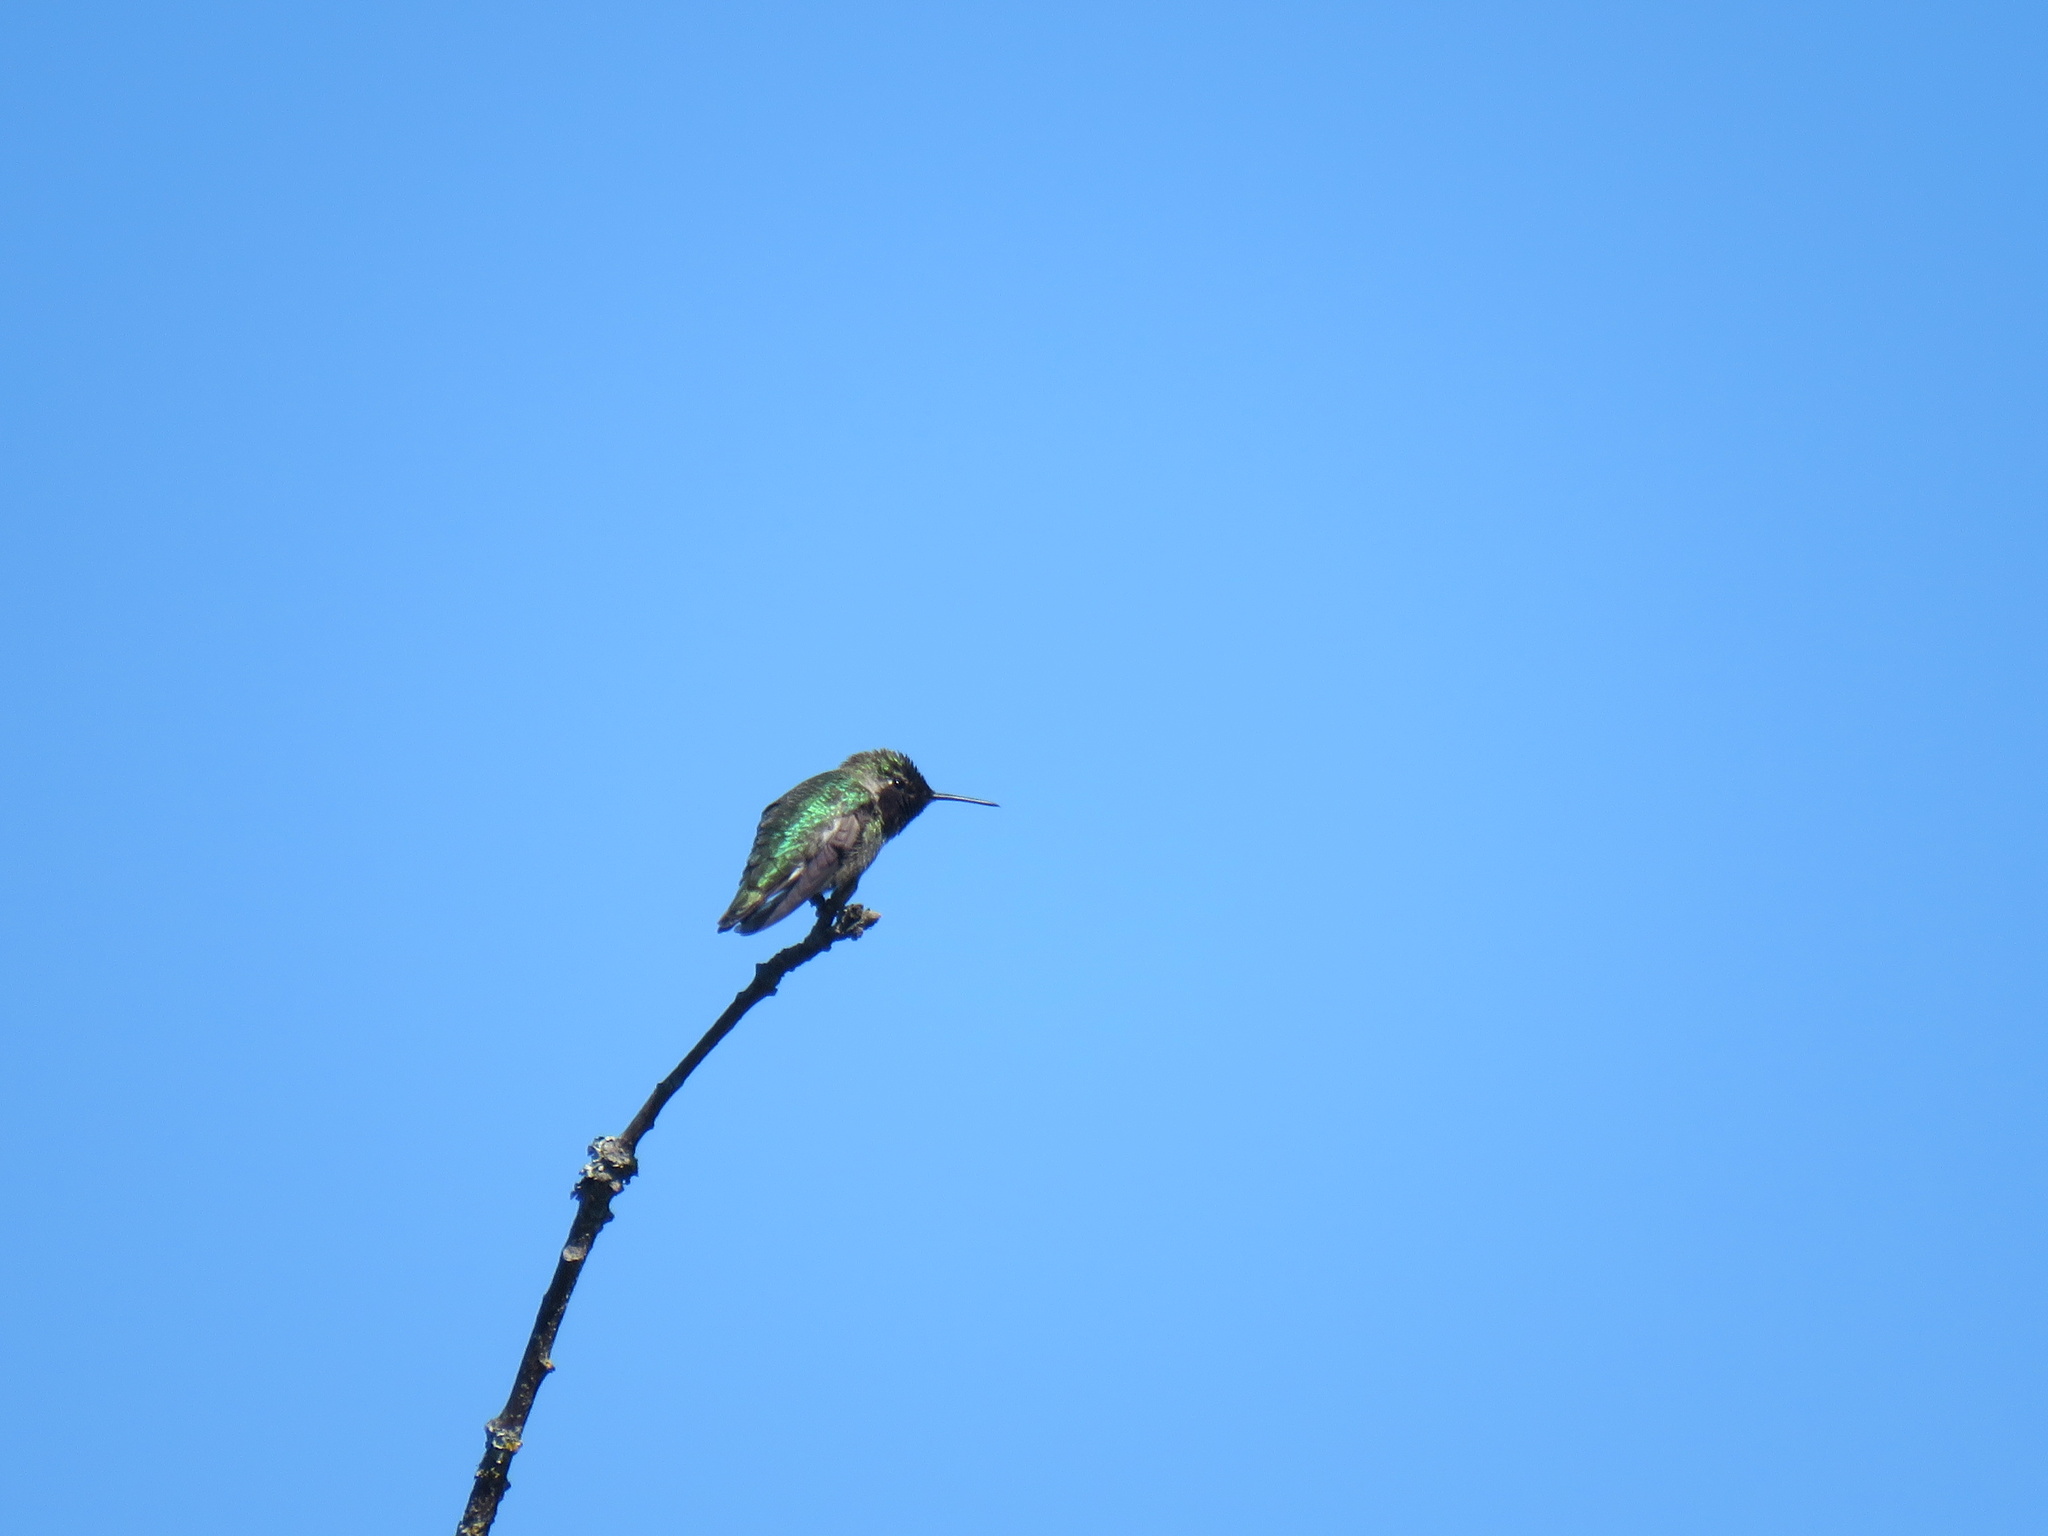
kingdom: Animalia
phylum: Chordata
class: Aves
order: Apodiformes
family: Trochilidae
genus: Calypte
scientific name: Calypte anna
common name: Anna's hummingbird
